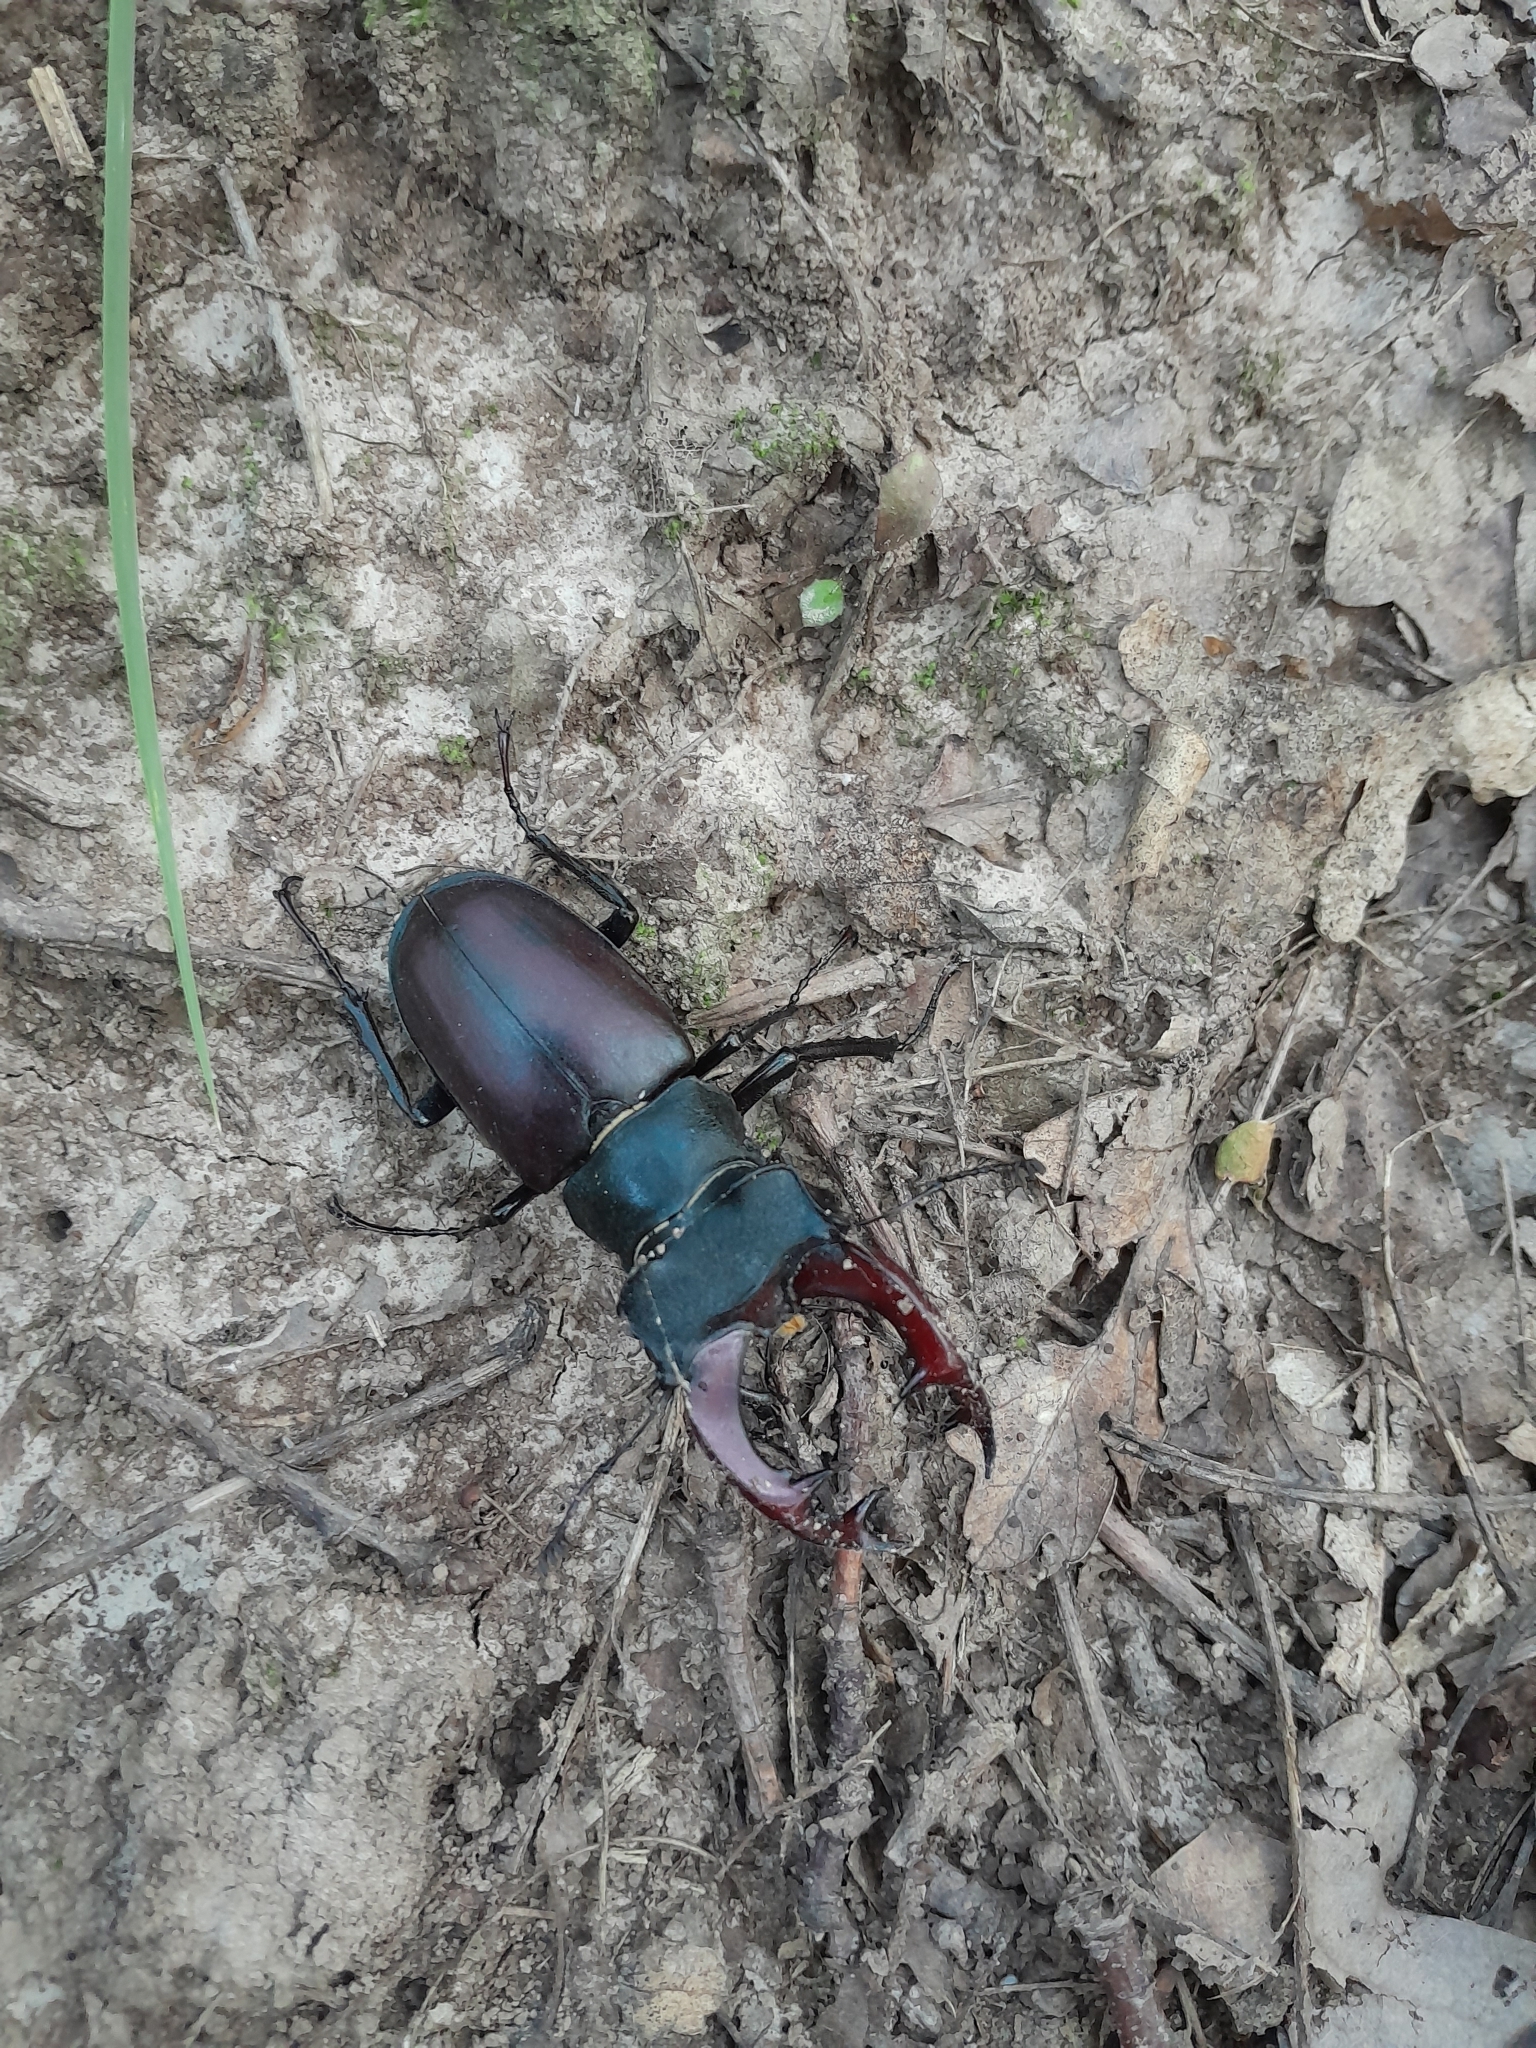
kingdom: Animalia
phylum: Arthropoda
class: Insecta
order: Coleoptera
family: Lucanidae
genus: Lucanus
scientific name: Lucanus cervus
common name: Stag beetle
